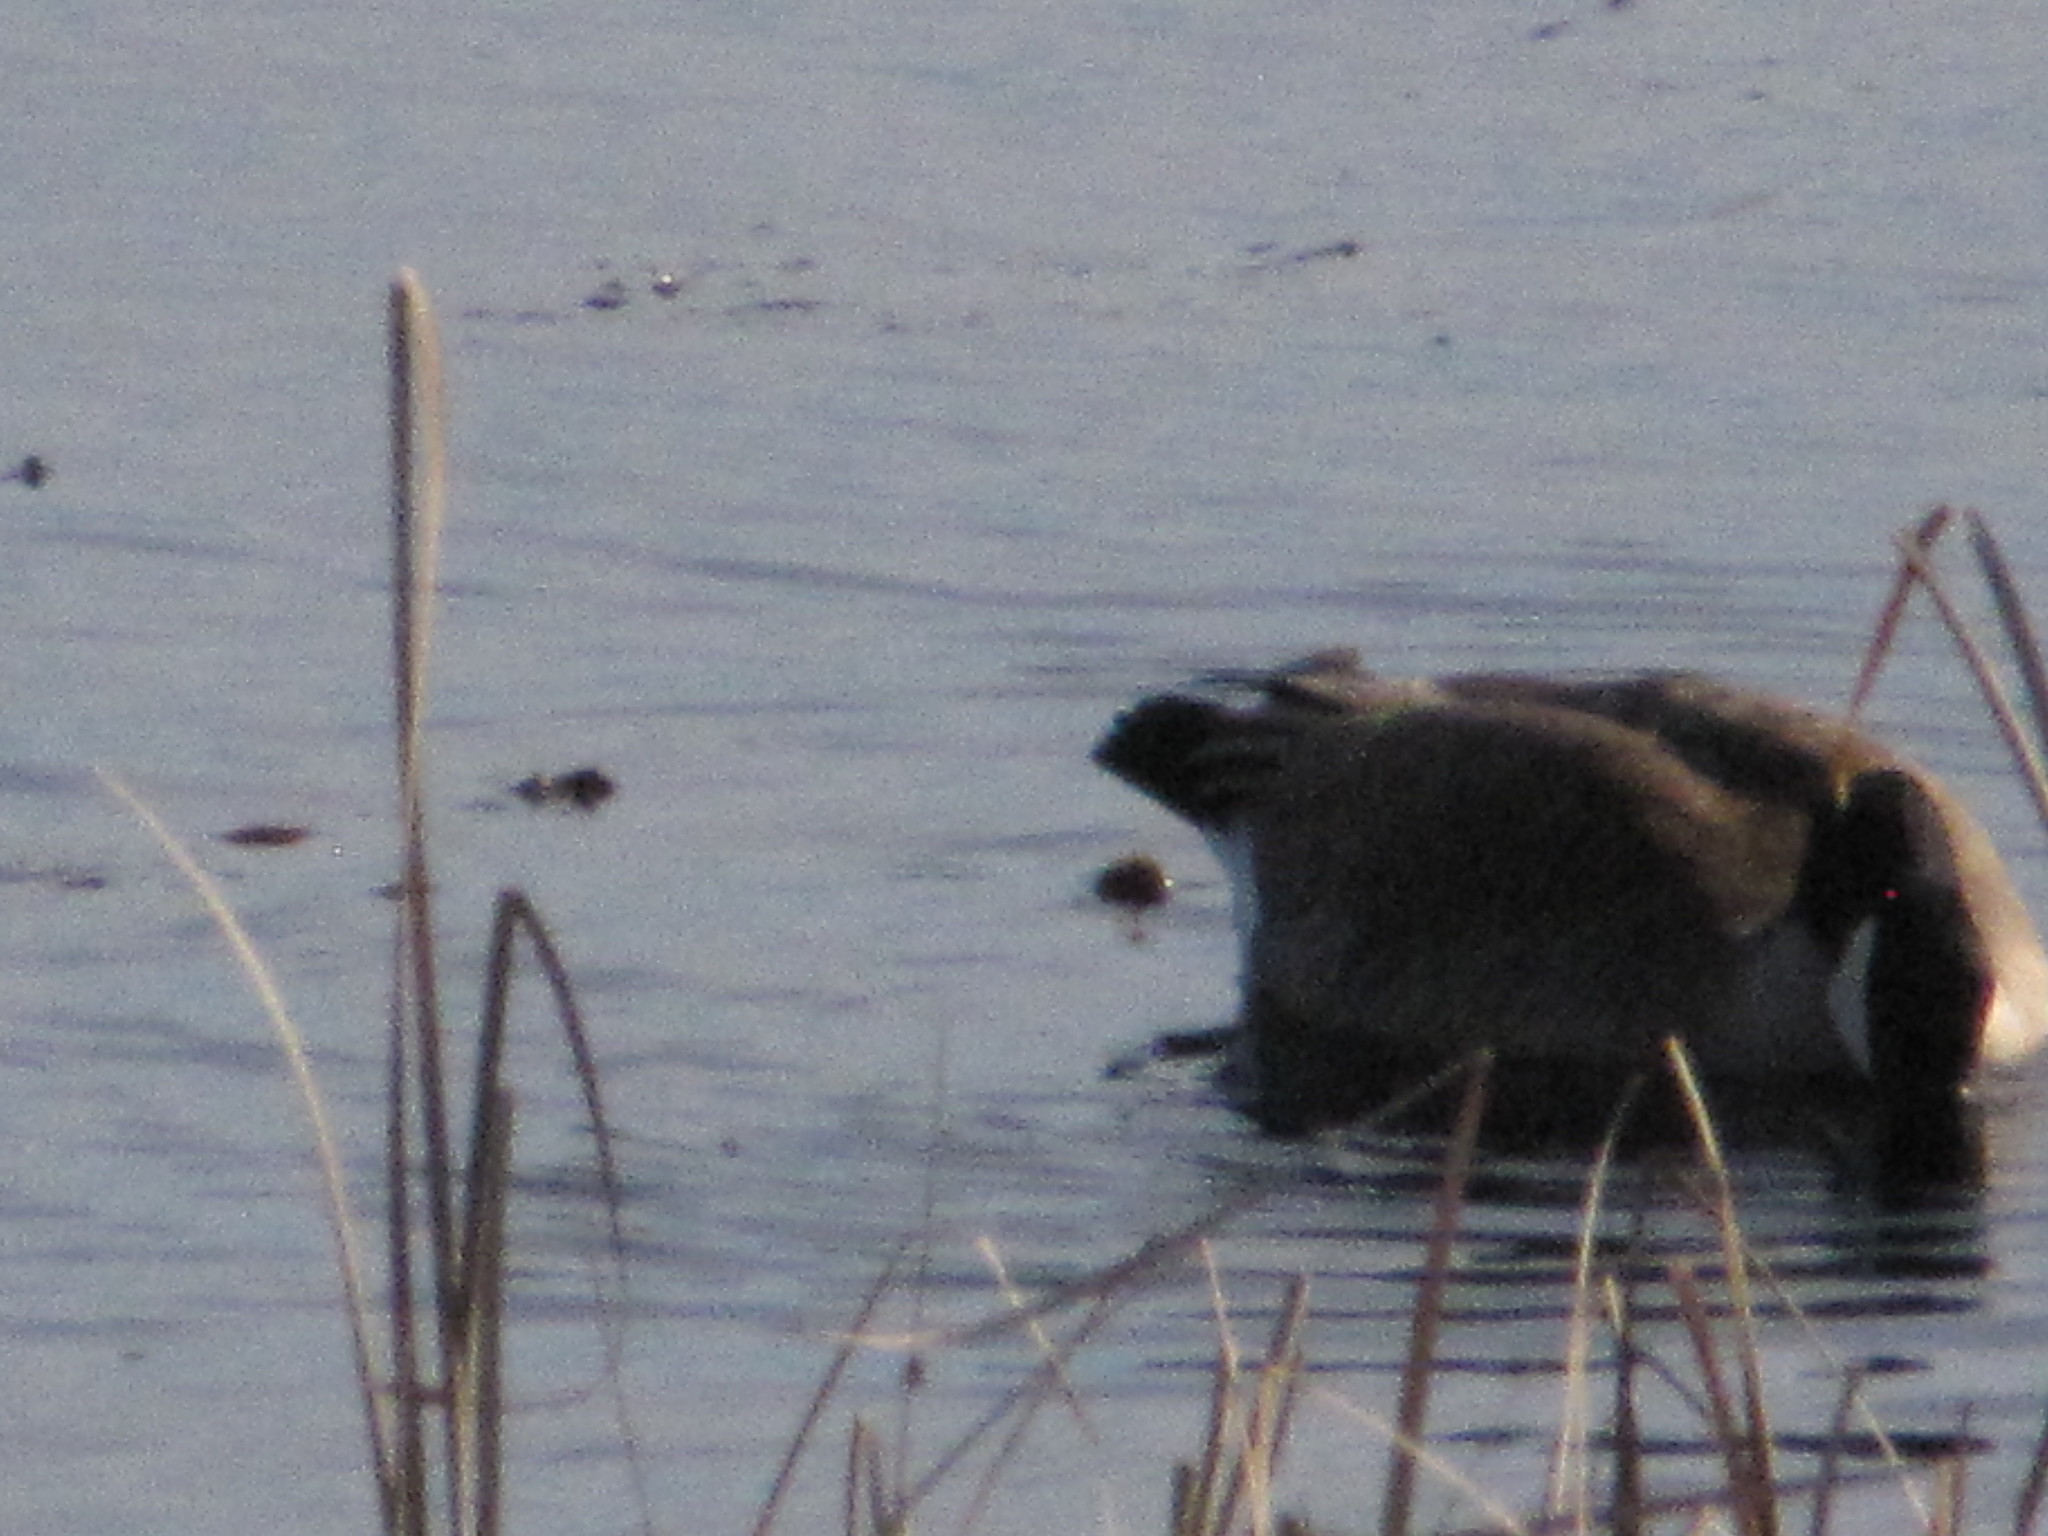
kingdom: Animalia
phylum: Chordata
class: Aves
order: Anseriformes
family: Anatidae
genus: Branta
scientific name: Branta canadensis
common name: Canada goose
